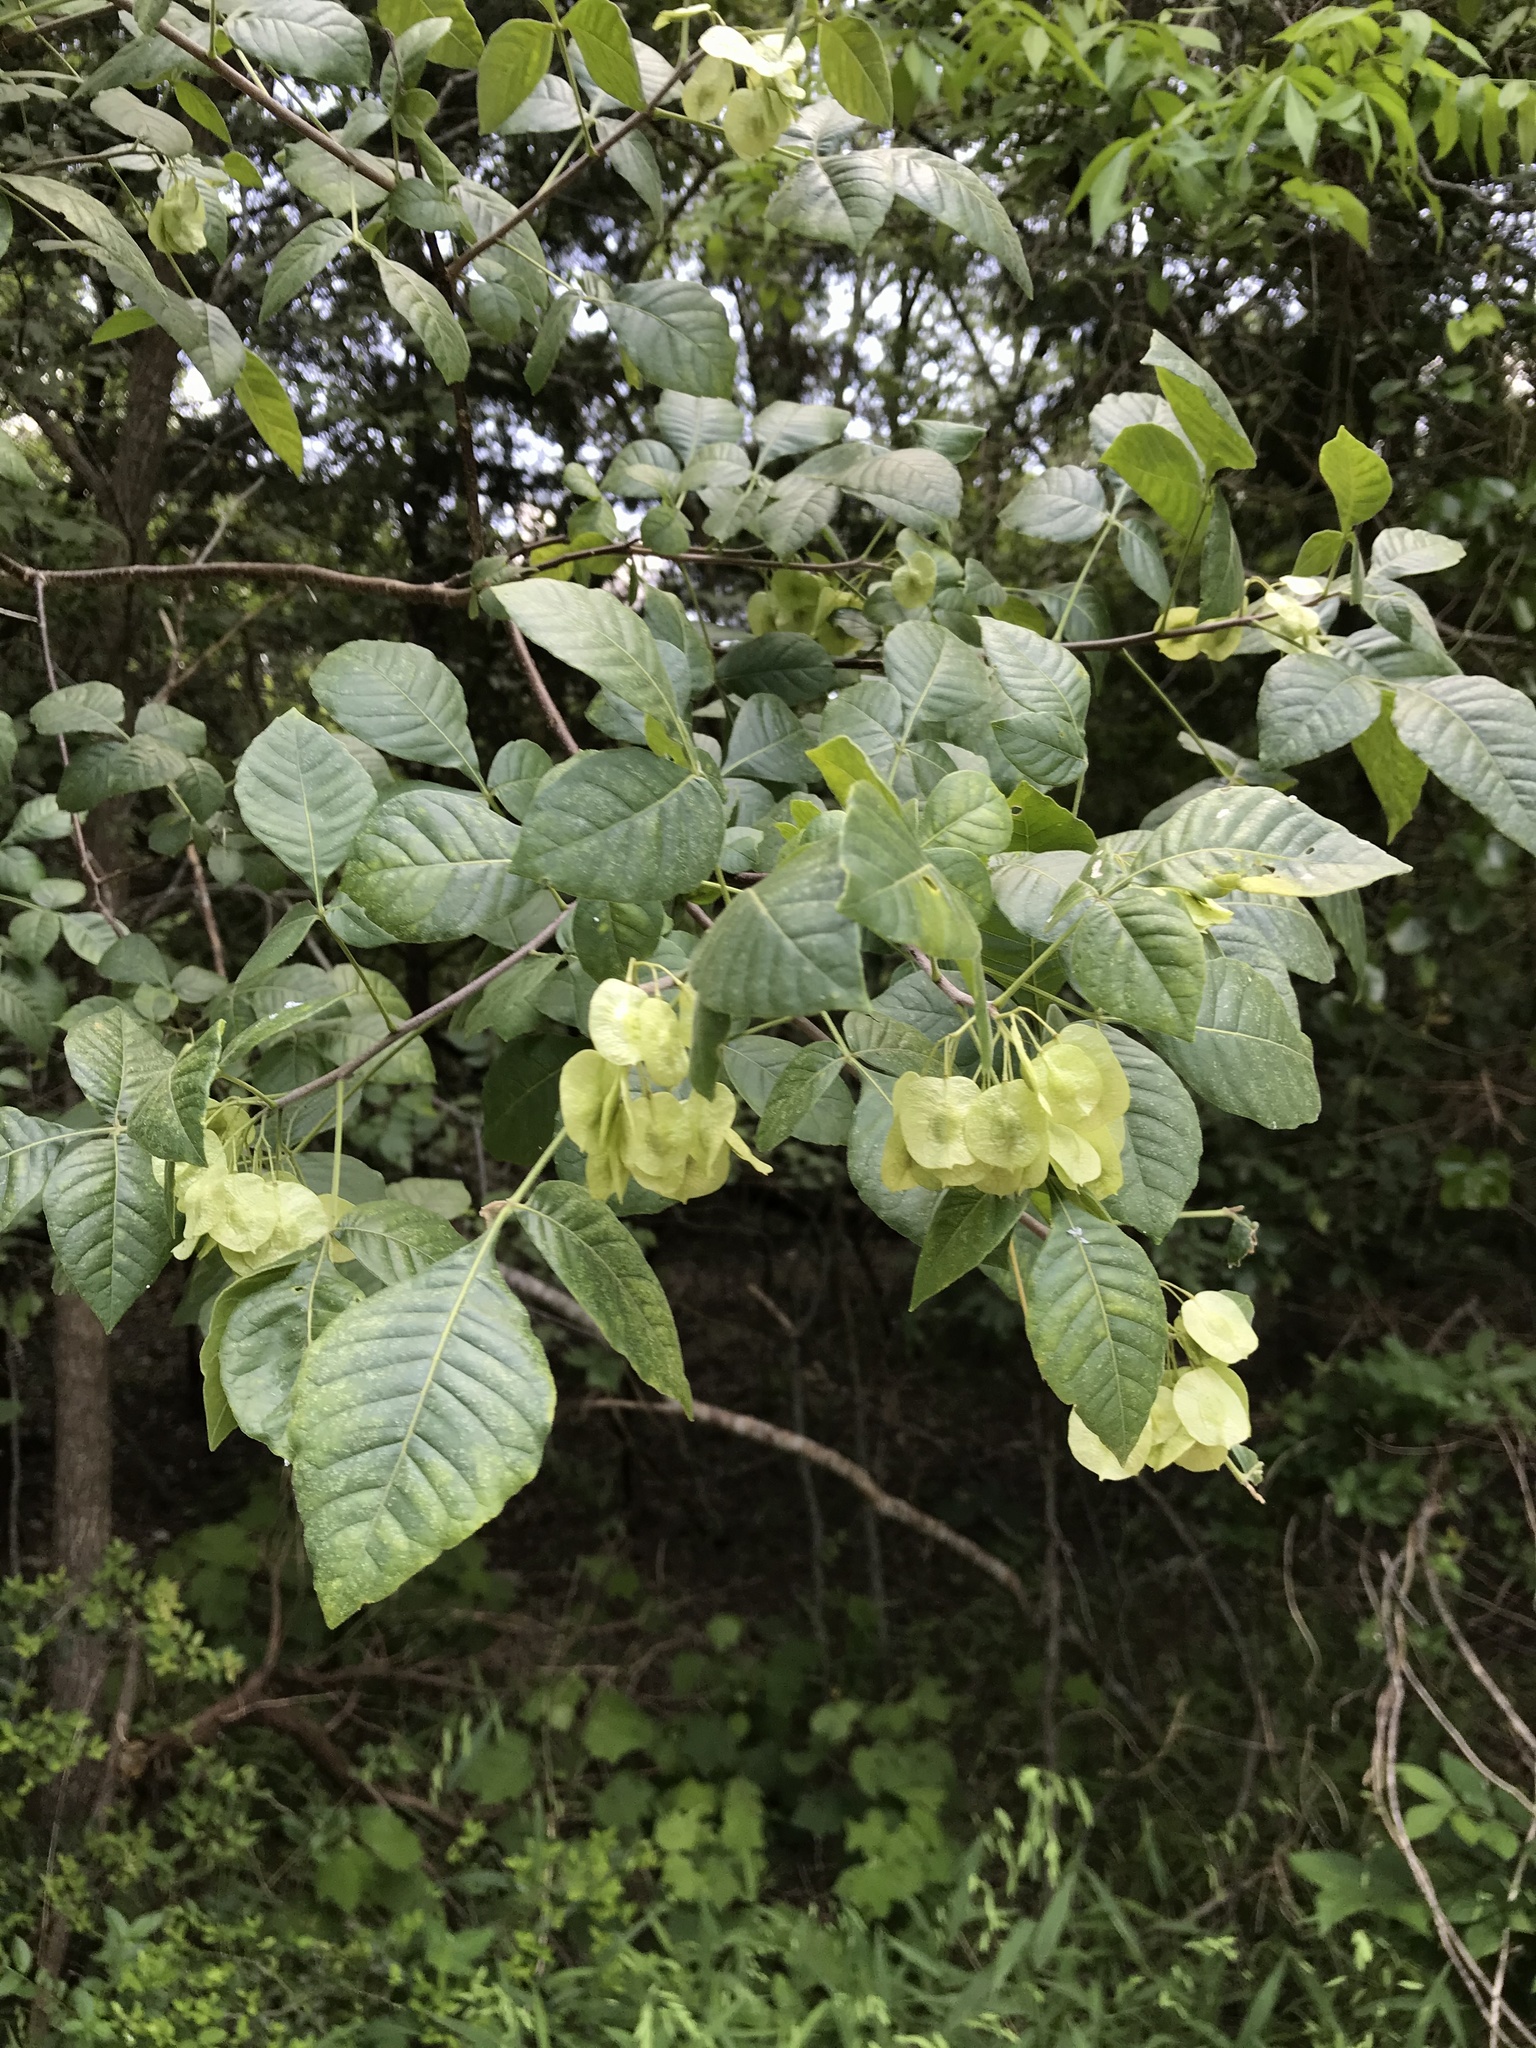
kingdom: Plantae
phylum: Tracheophyta
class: Magnoliopsida
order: Sapindales
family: Rutaceae
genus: Ptelea
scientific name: Ptelea trifoliata
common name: Common hop-tree
